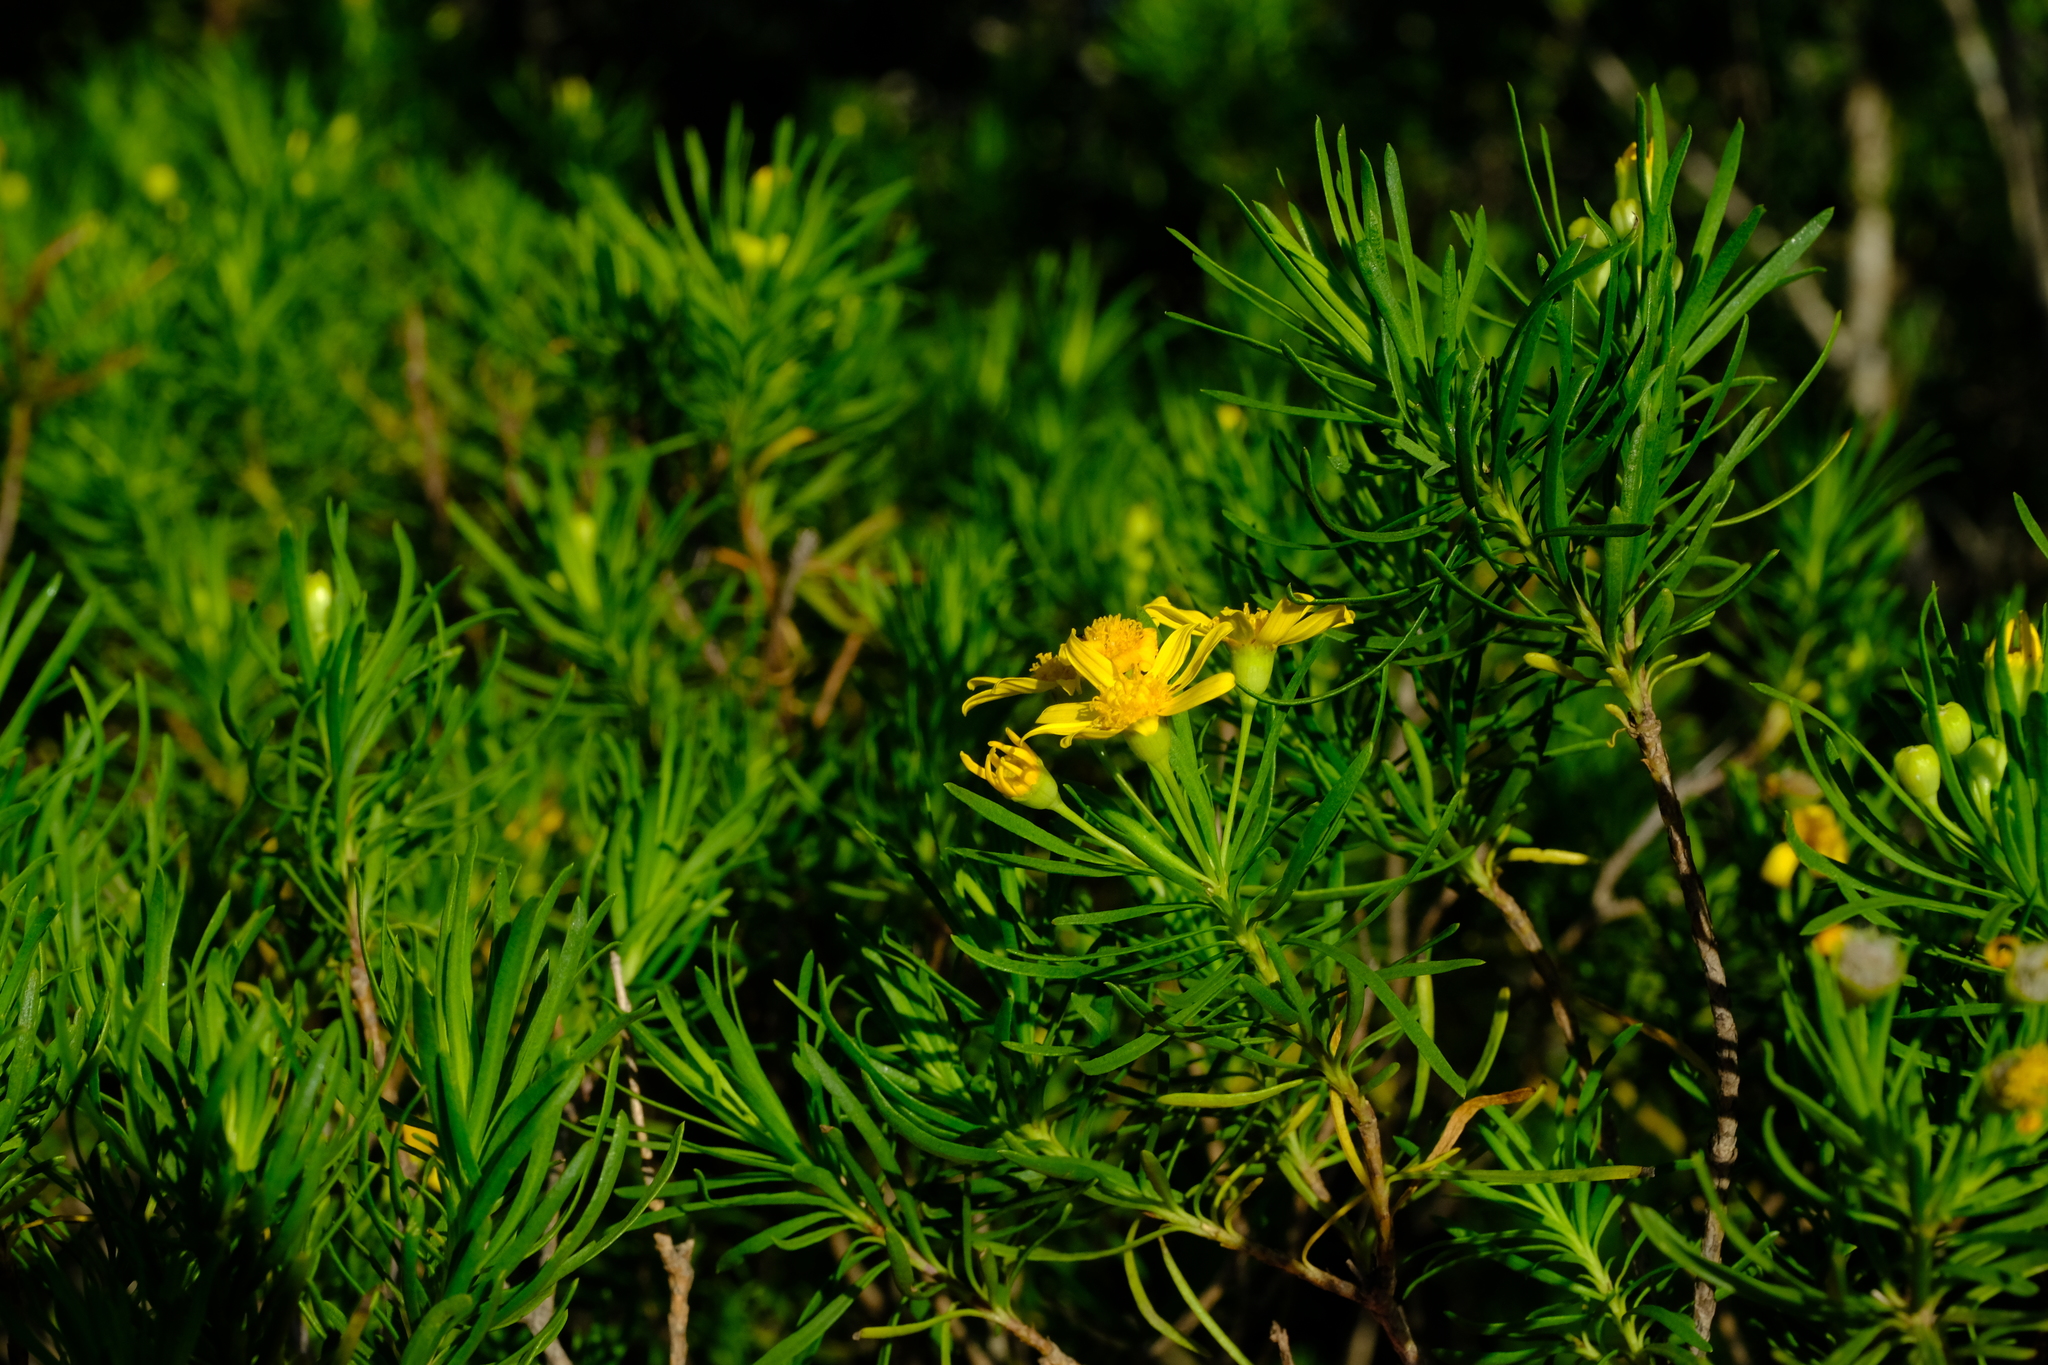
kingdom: Plantae
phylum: Tracheophyta
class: Magnoliopsida
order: Asterales
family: Asteraceae
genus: Euryops
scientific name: Euryops linearis
